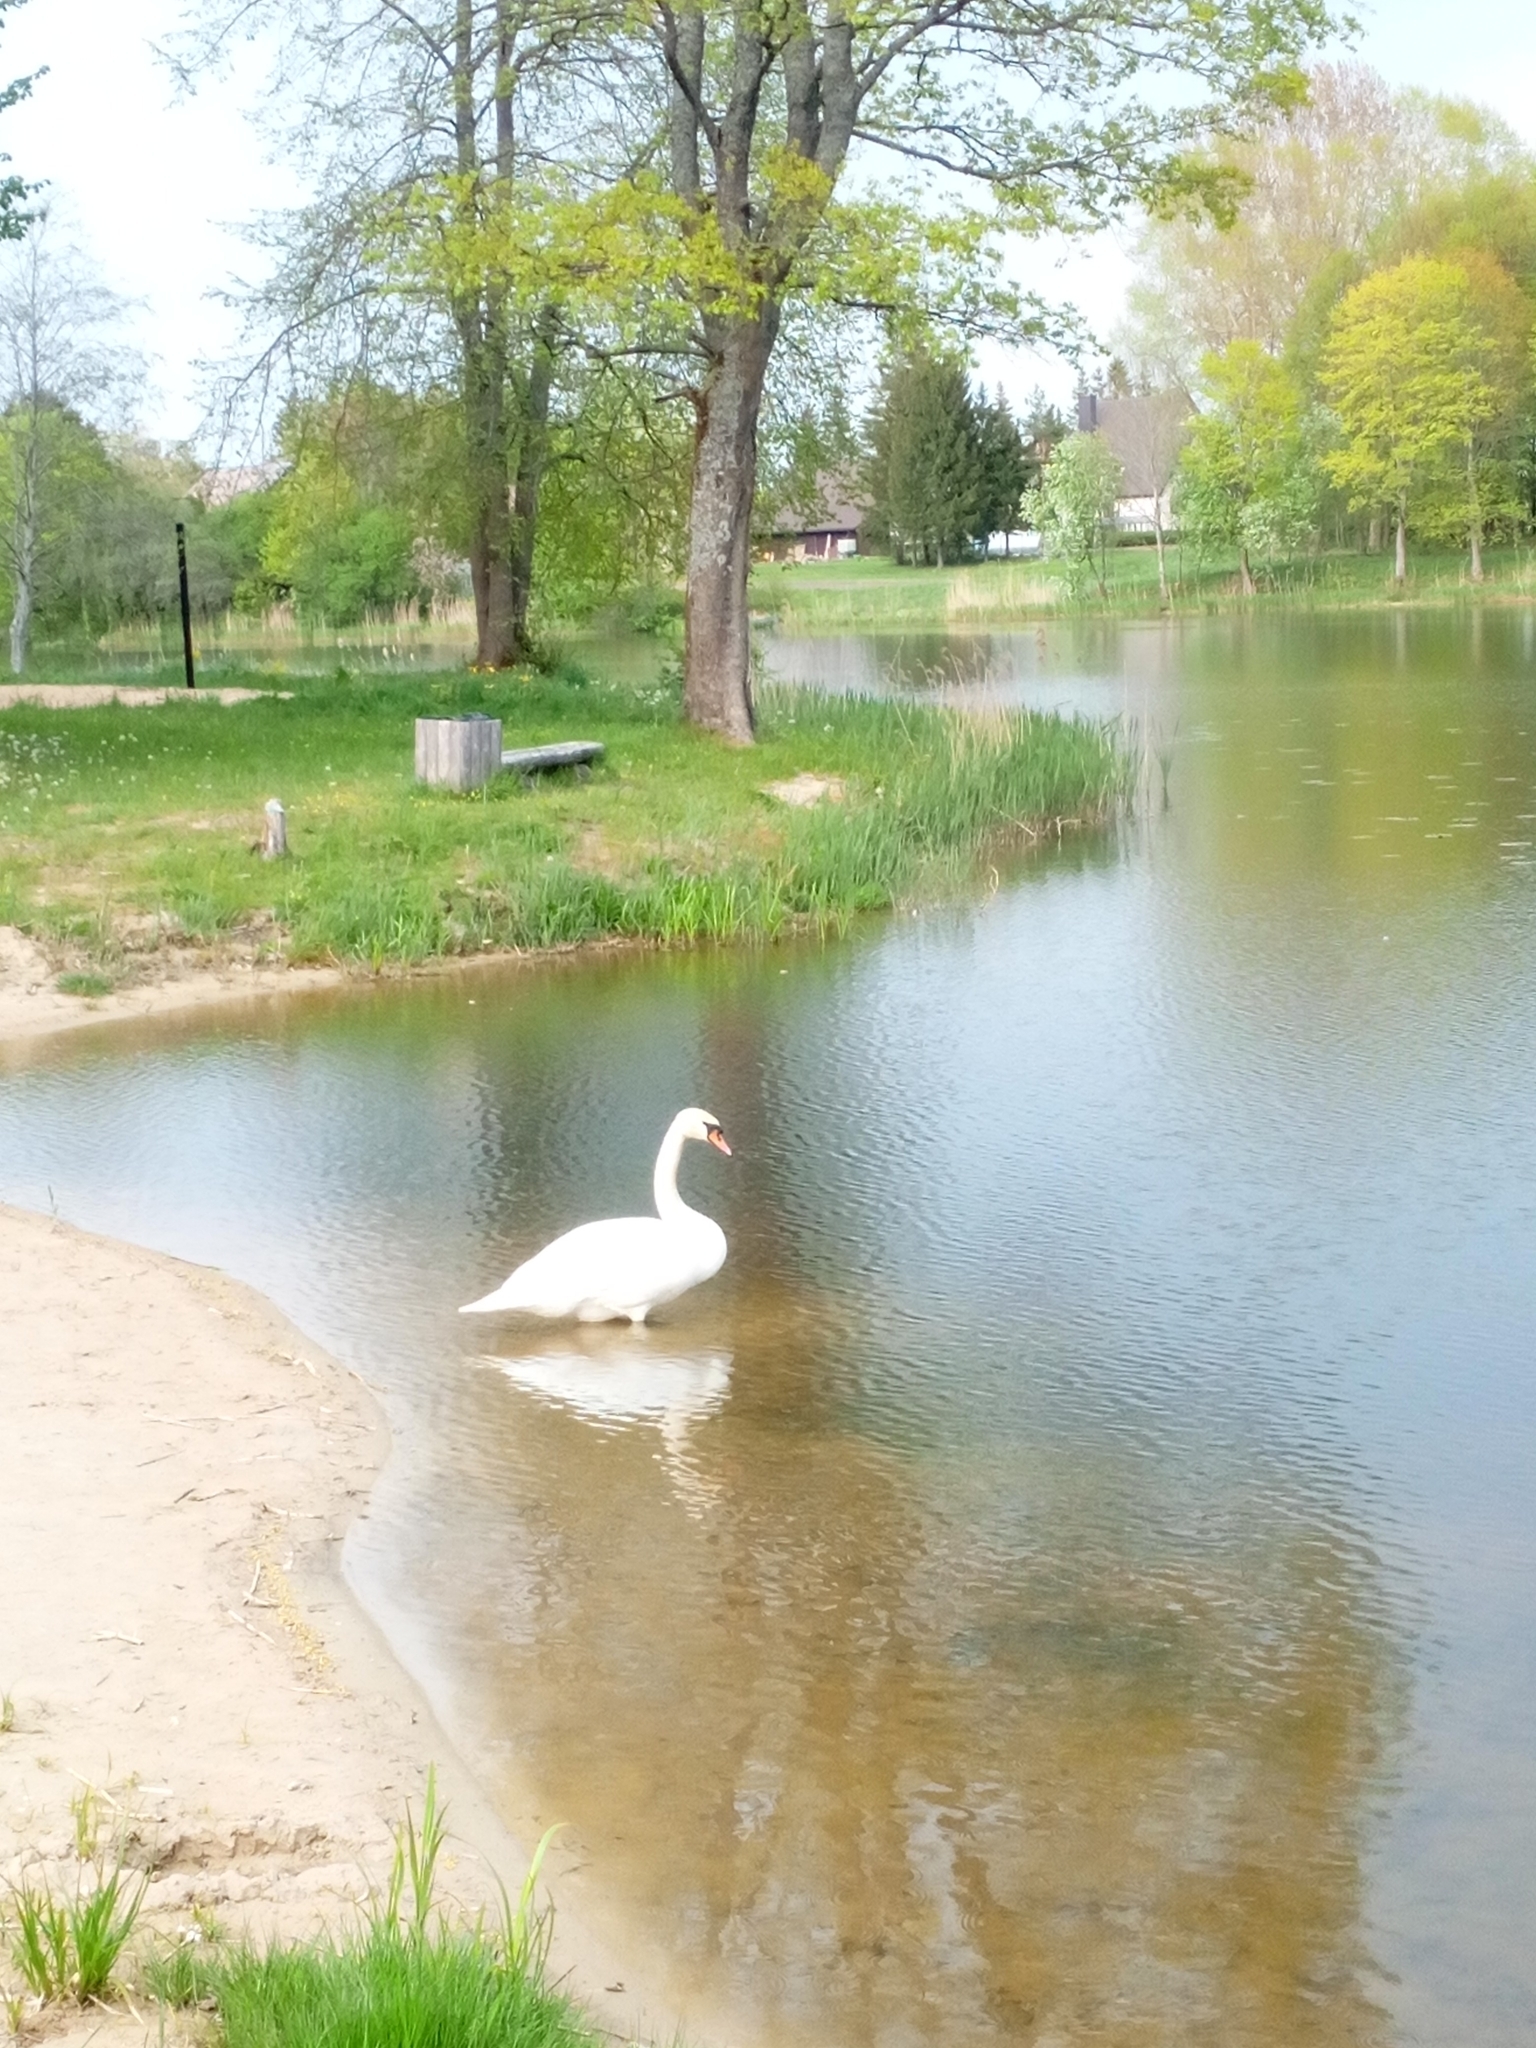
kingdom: Animalia
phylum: Chordata
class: Aves
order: Anseriformes
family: Anatidae
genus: Cygnus
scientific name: Cygnus olor
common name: Mute swan
